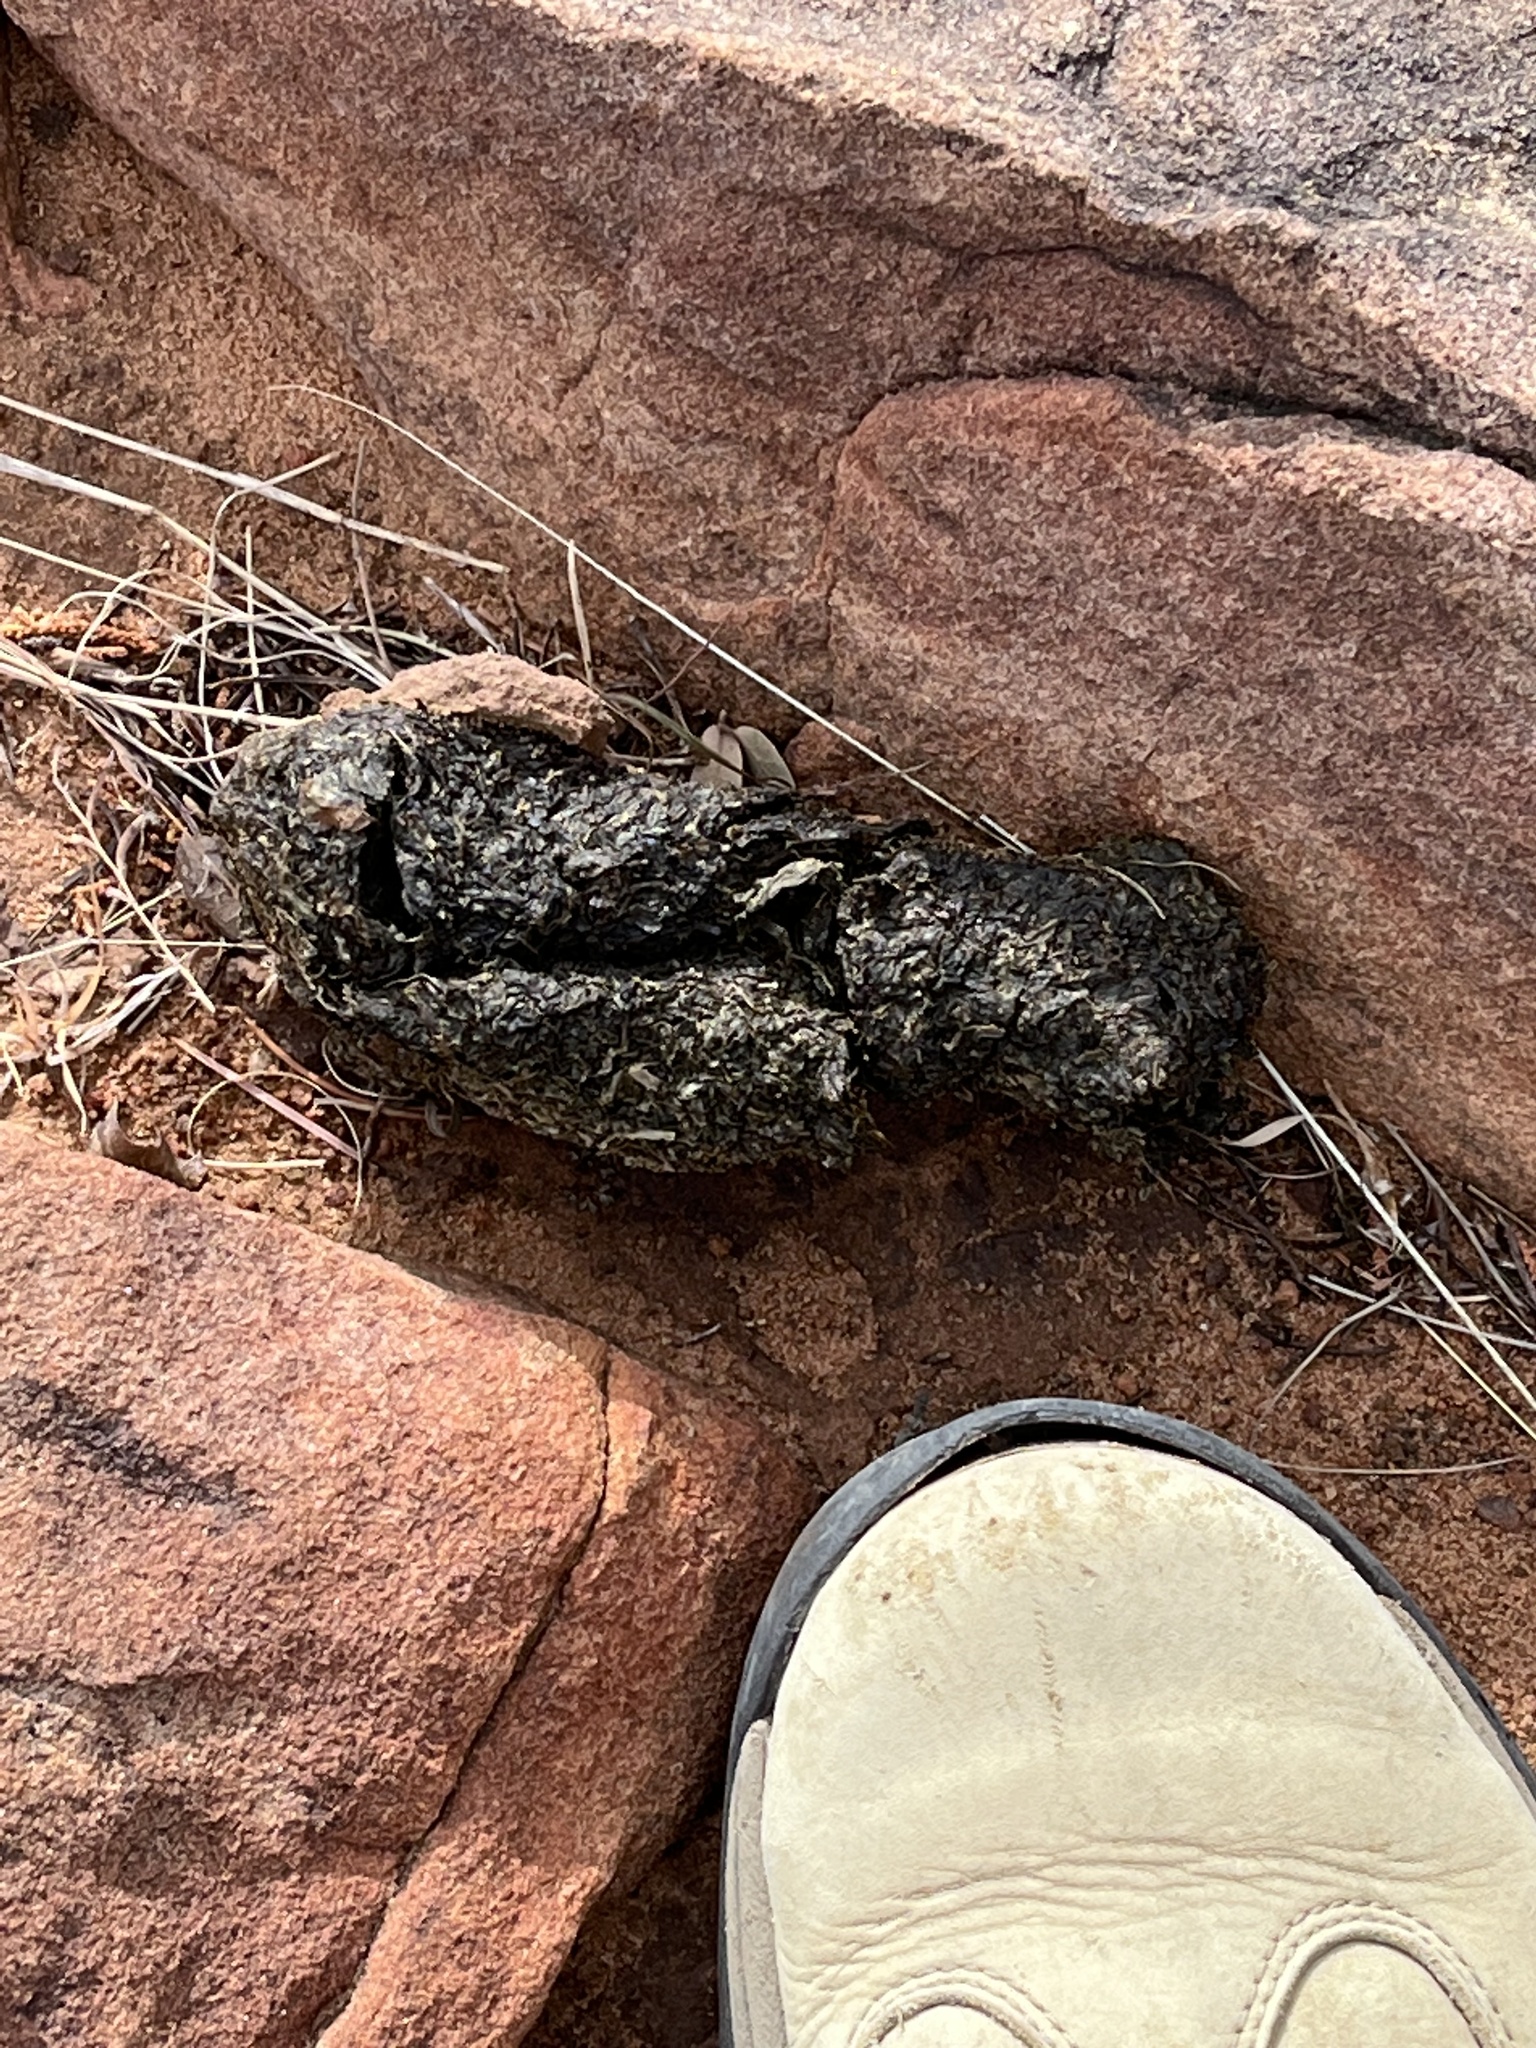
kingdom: Animalia
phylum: Chordata
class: Mammalia
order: Carnivora
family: Ursidae
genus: Ursus
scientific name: Ursus americanus
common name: American black bear
